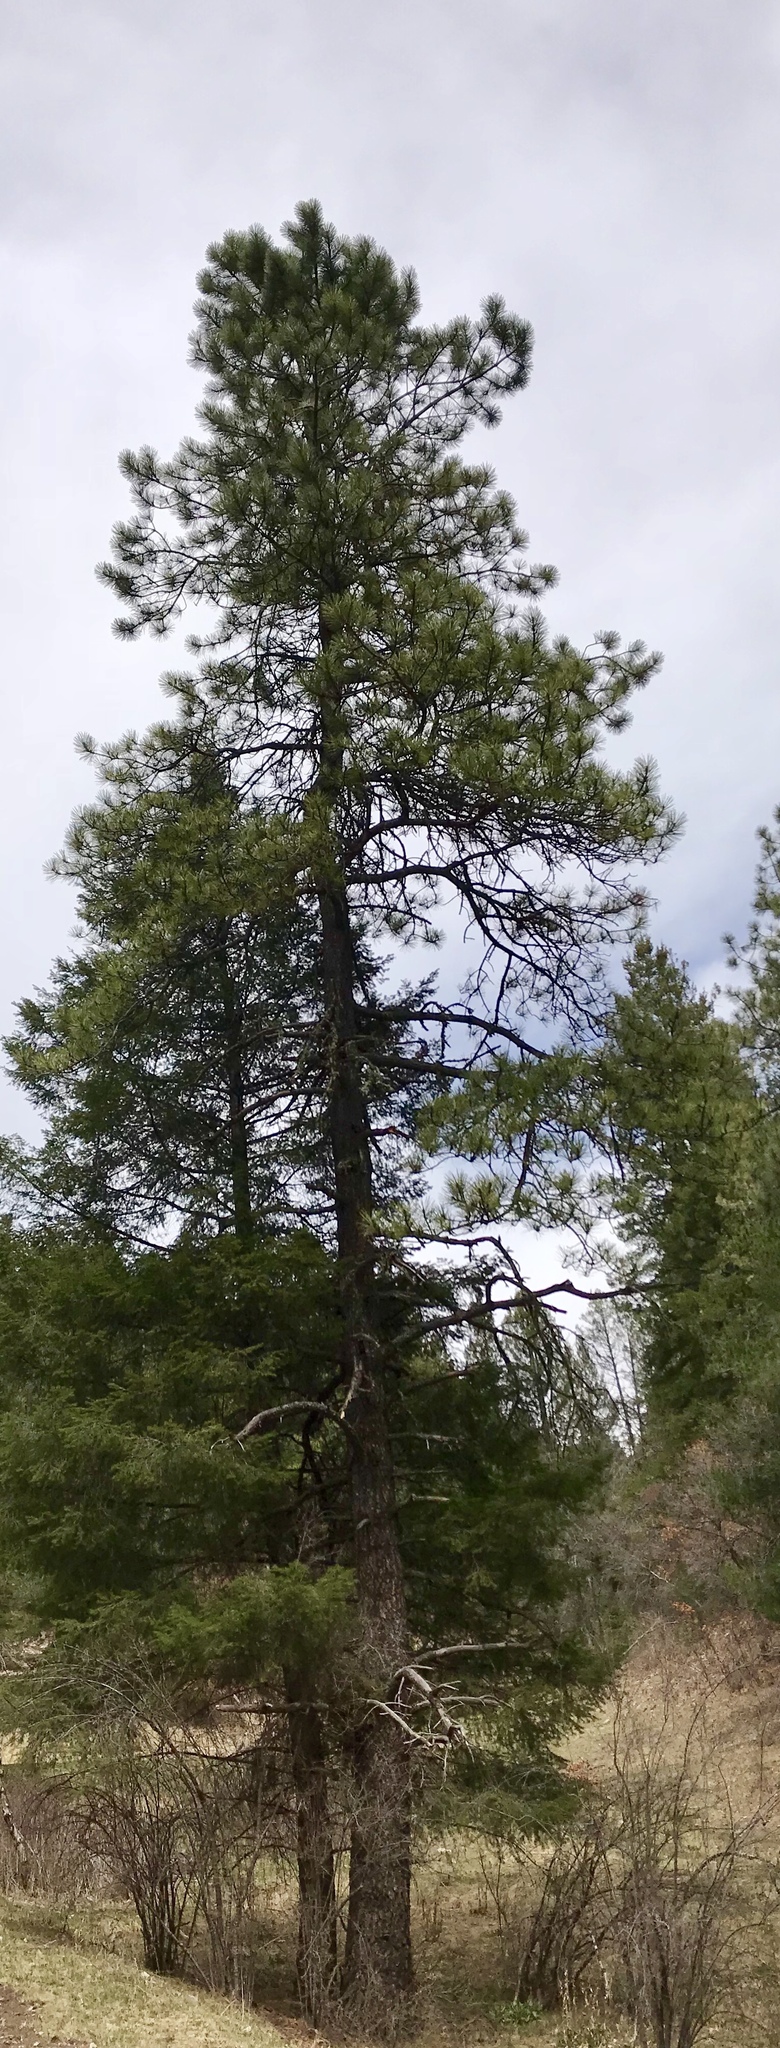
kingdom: Plantae
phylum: Tracheophyta
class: Pinopsida
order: Pinales
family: Pinaceae
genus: Pinus
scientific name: Pinus ponderosa
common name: Western yellow-pine
